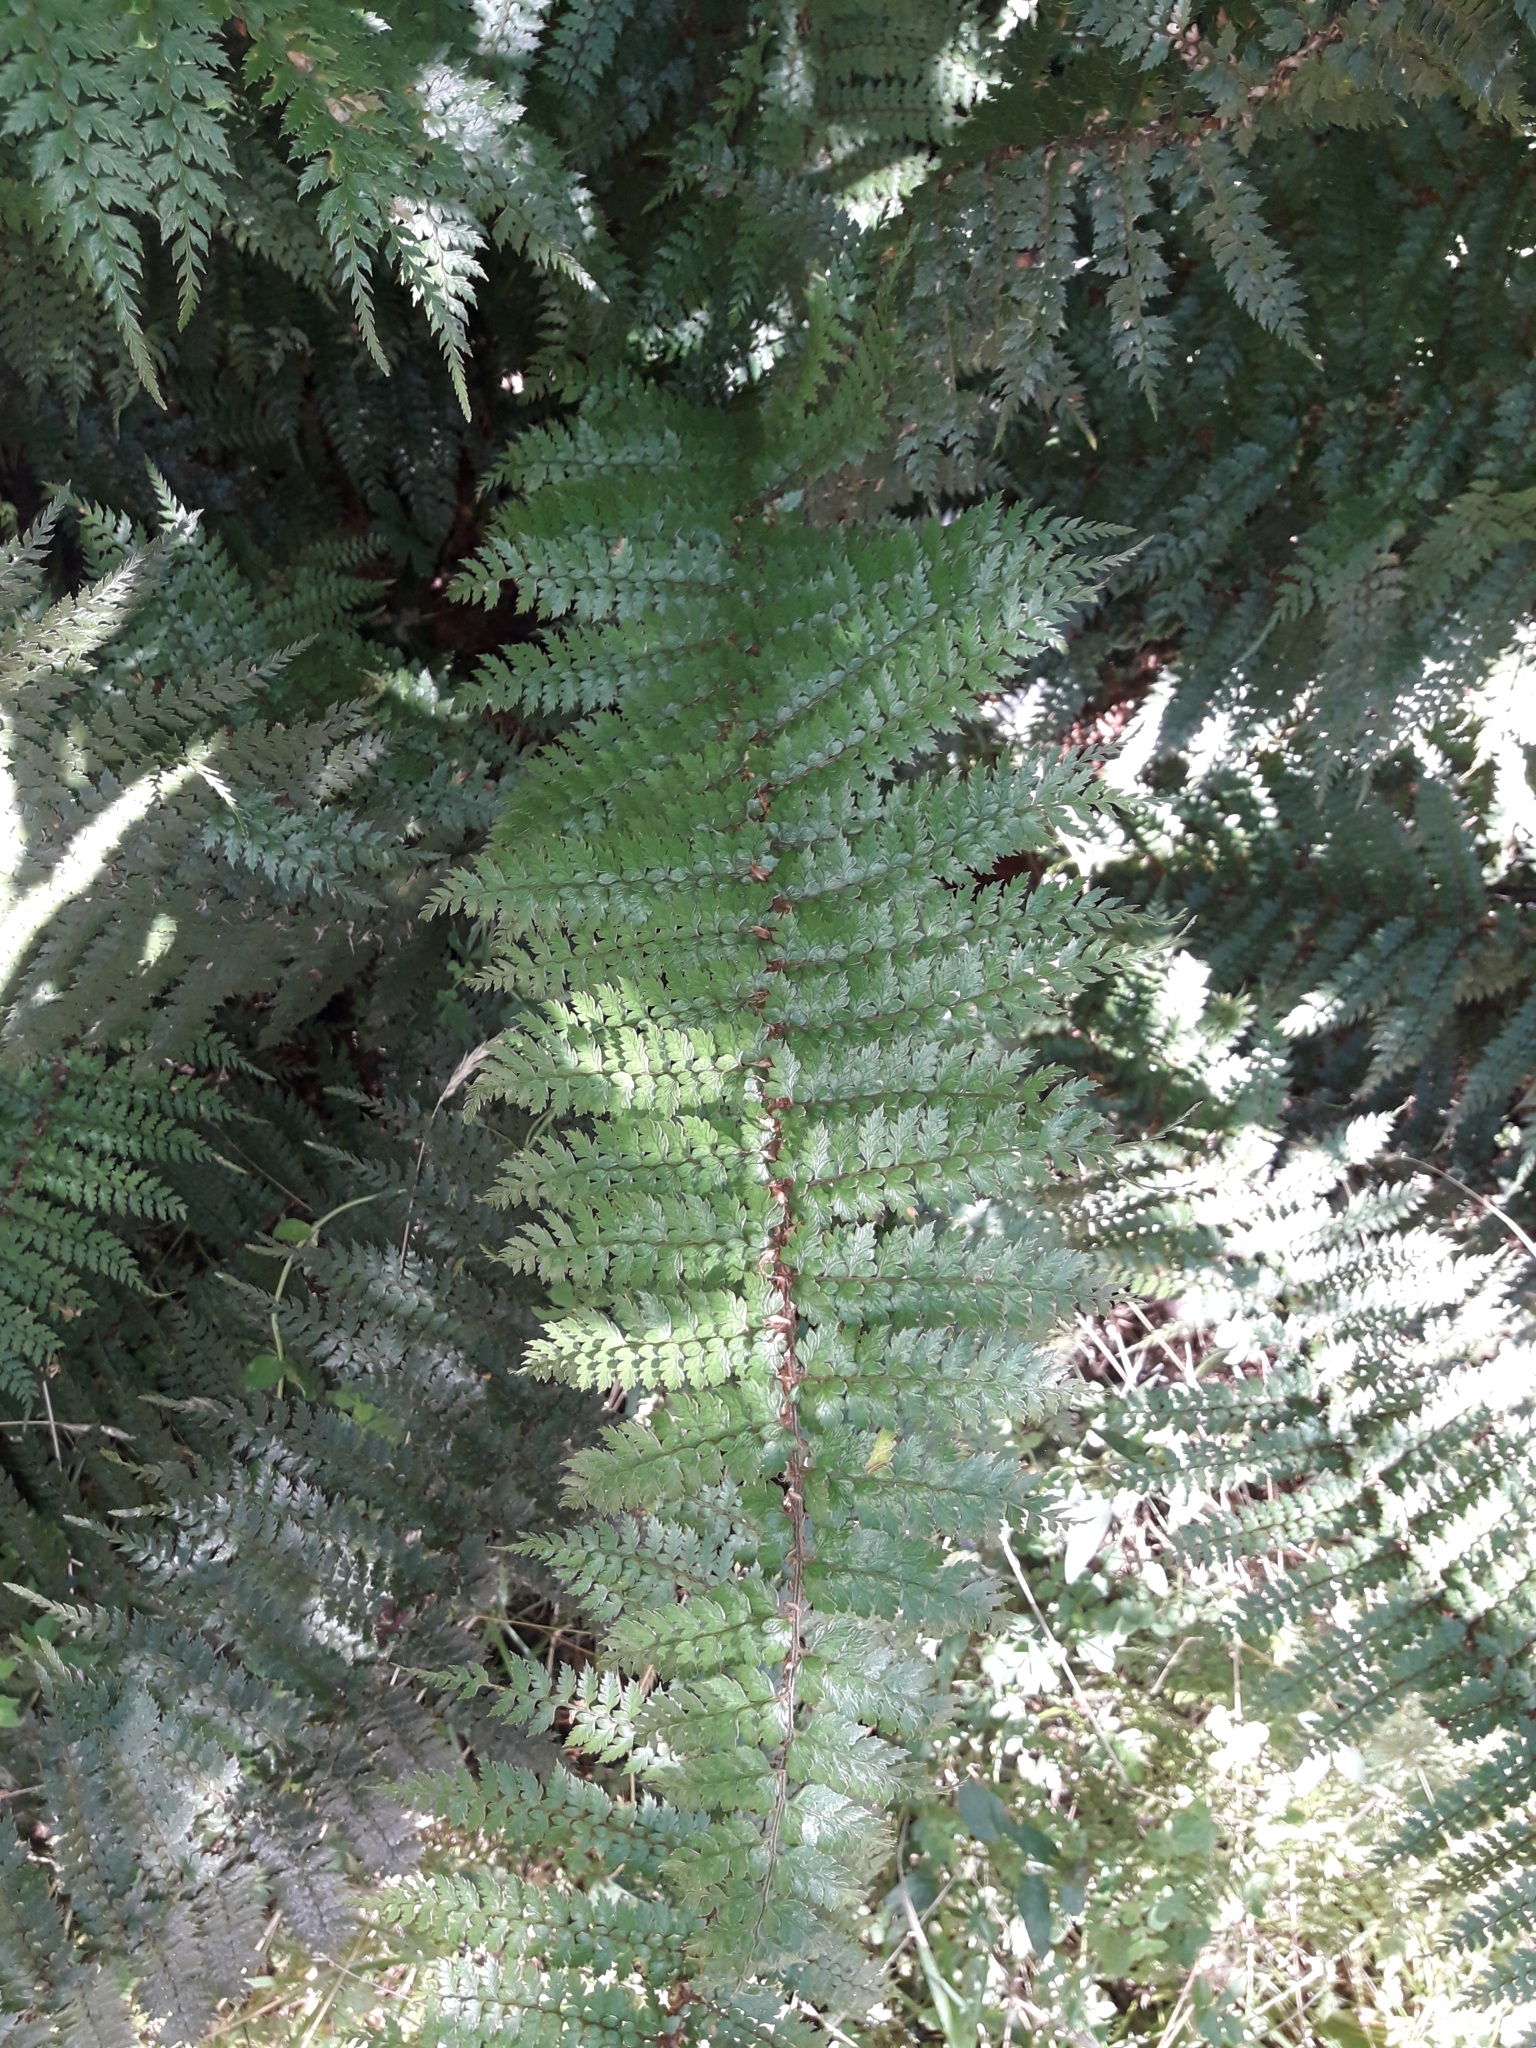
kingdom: Plantae
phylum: Tracheophyta
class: Polypodiopsida
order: Polypodiales
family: Dryopteridaceae
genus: Polystichum
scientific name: Polystichum vestitum
